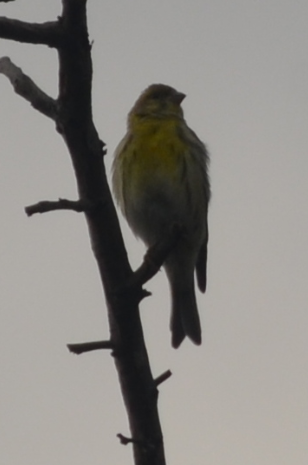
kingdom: Animalia
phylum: Chordata
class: Aves
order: Passeriformes
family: Fringillidae
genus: Serinus
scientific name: Serinus serinus
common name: European serin
